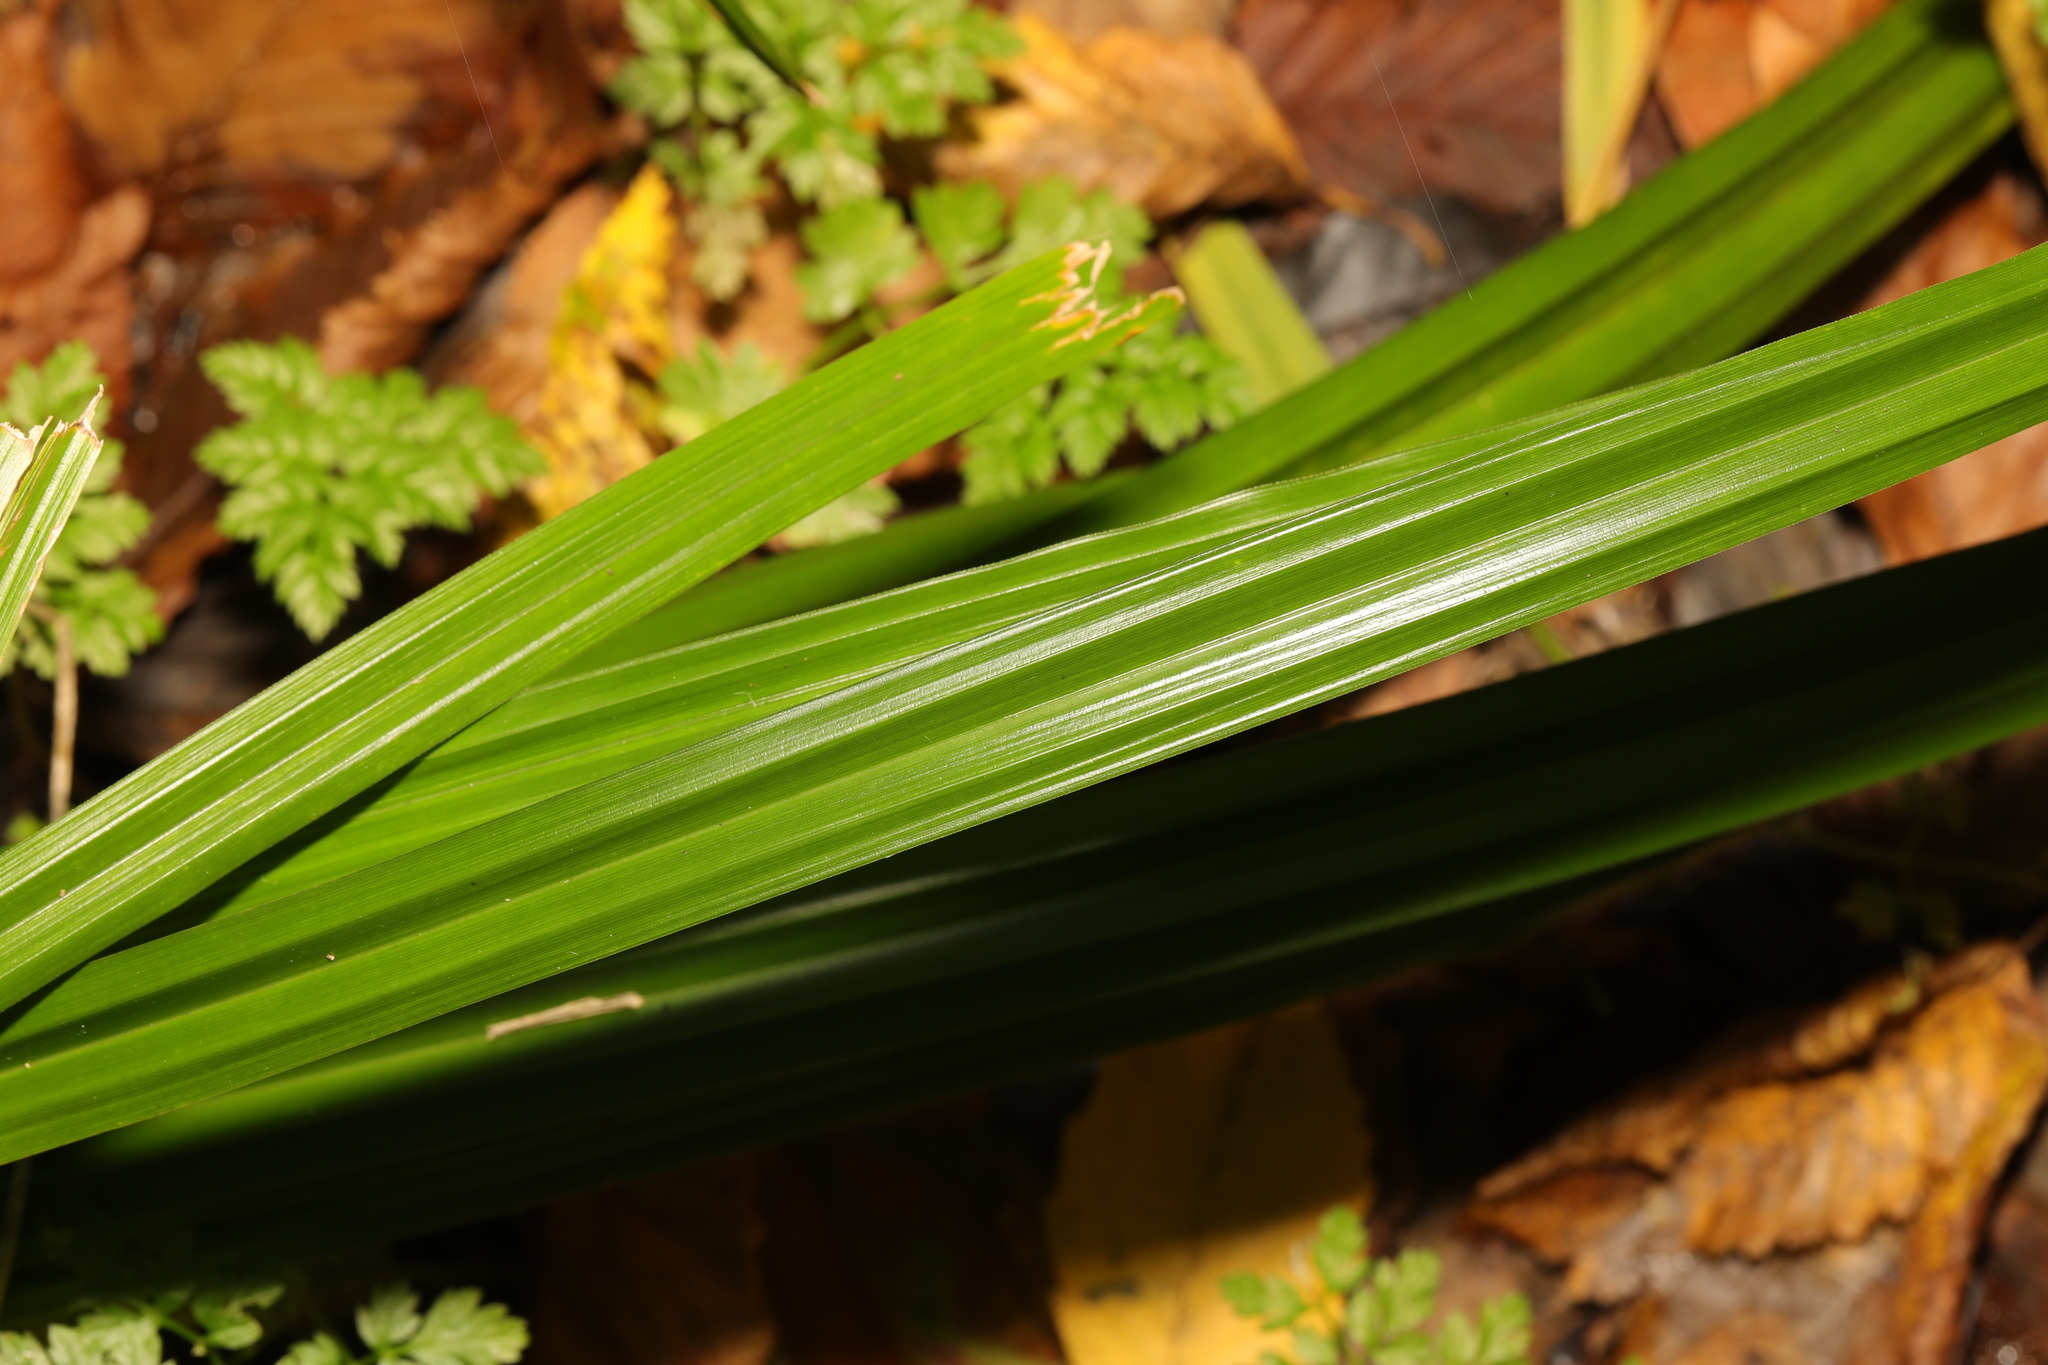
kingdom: Plantae
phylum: Tracheophyta
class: Liliopsida
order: Poales
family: Cyperaceae
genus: Carex
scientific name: Carex pendula
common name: Pendulous sedge
